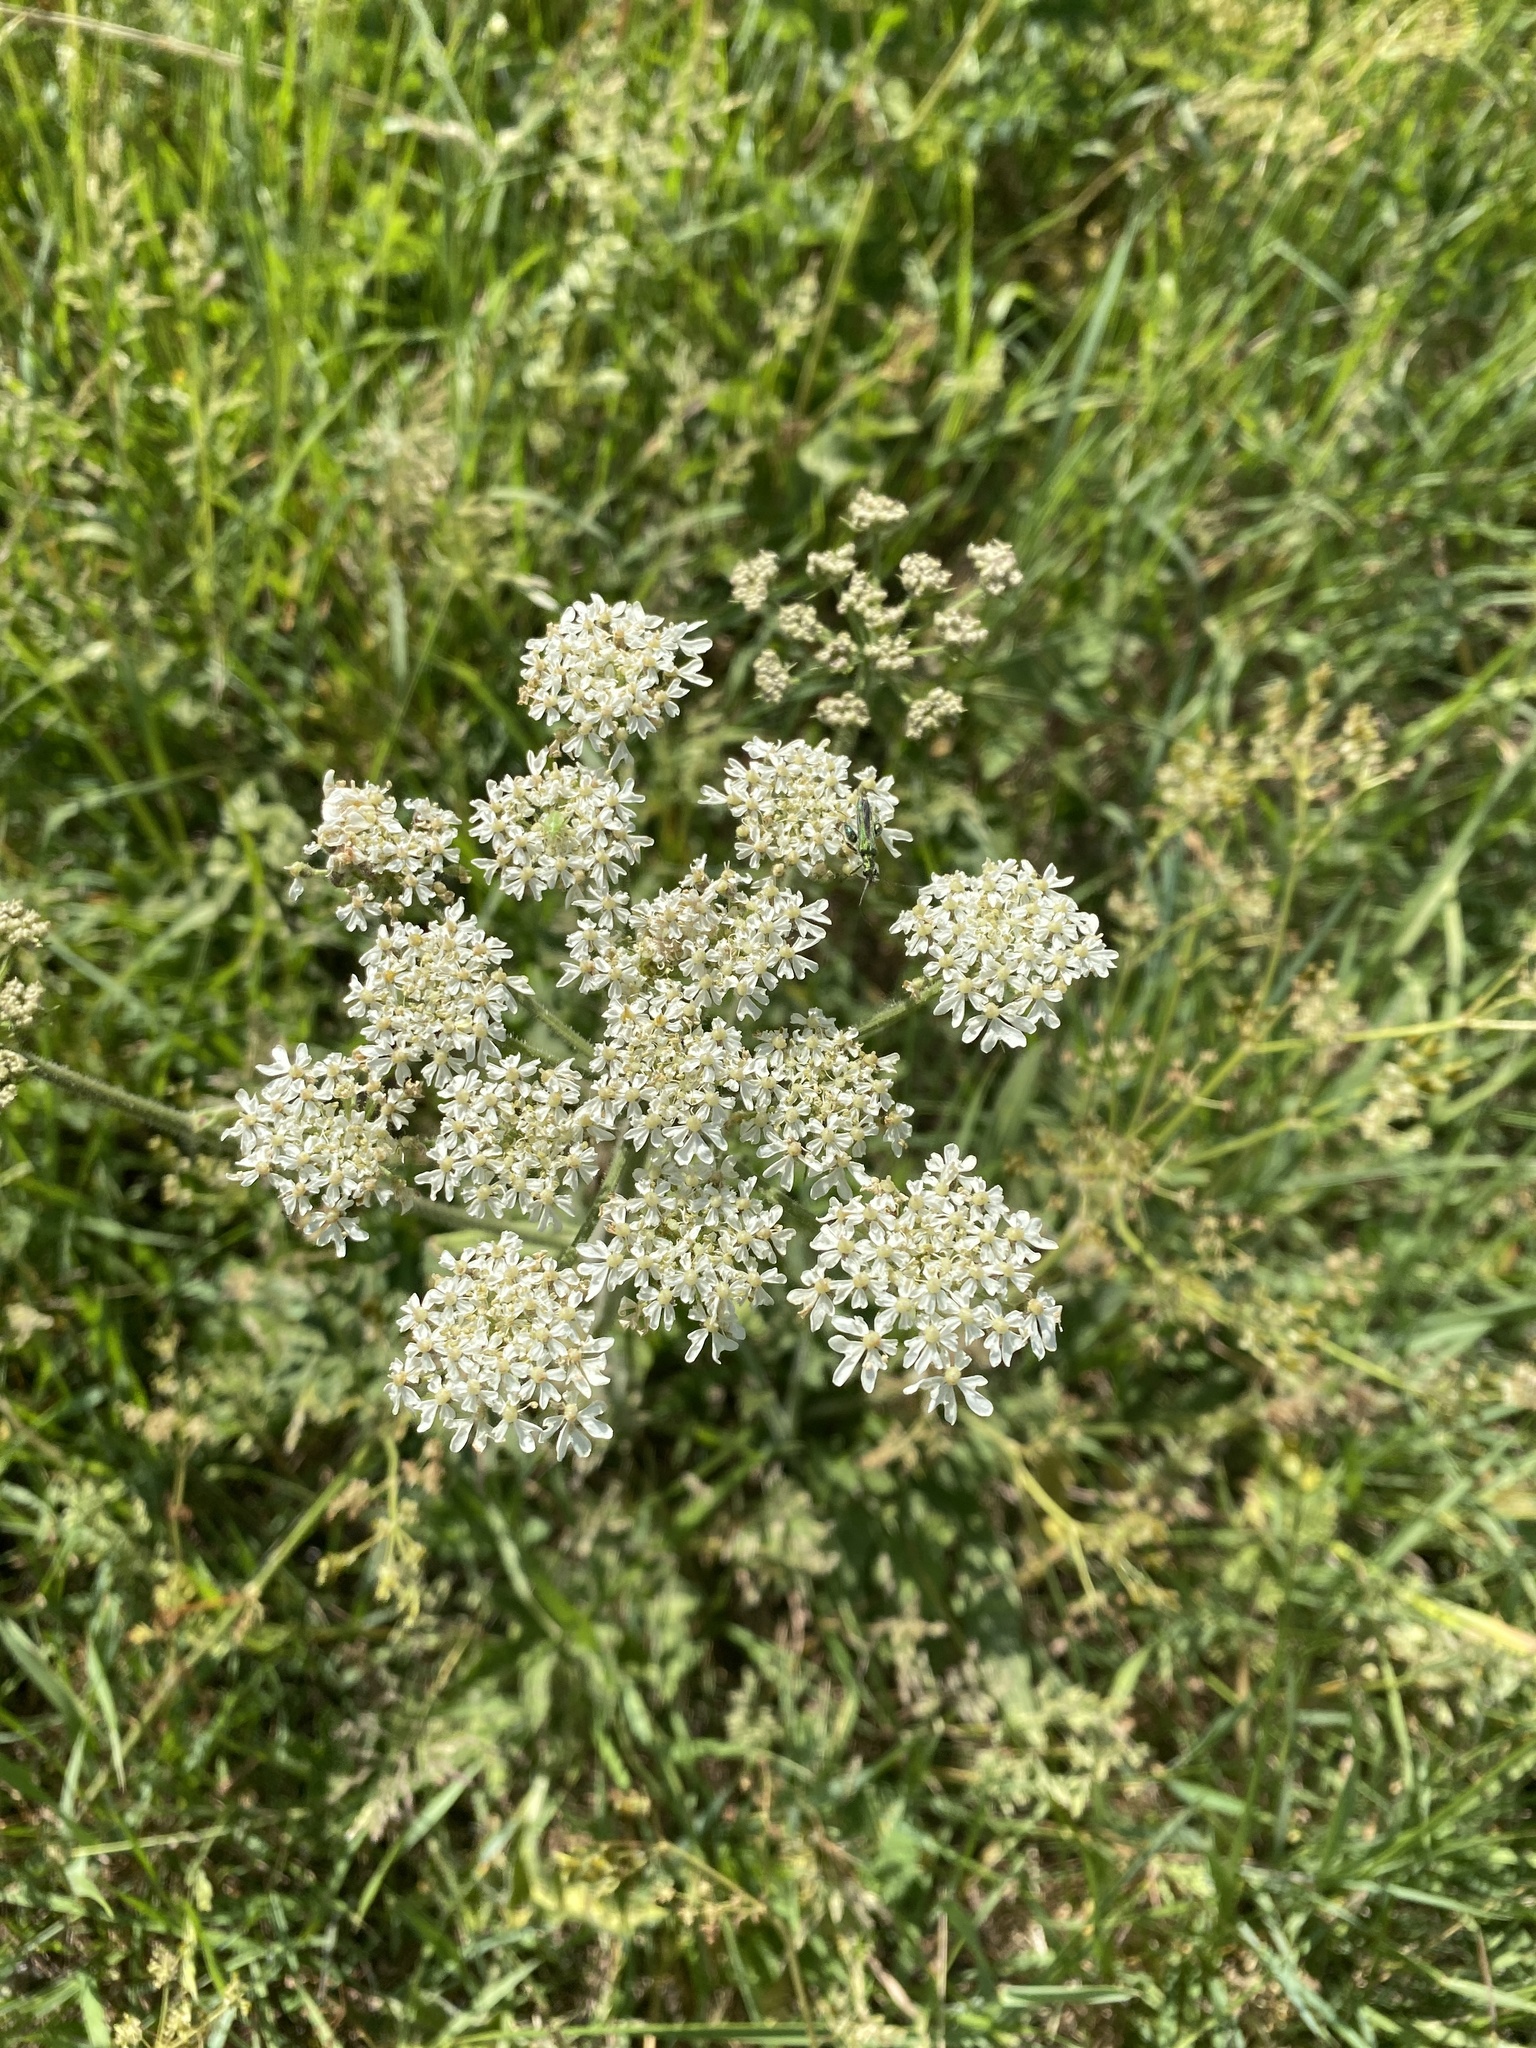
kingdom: Plantae
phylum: Tracheophyta
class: Magnoliopsida
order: Apiales
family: Apiaceae
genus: Heracleum
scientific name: Heracleum sphondylium
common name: Hogweed
